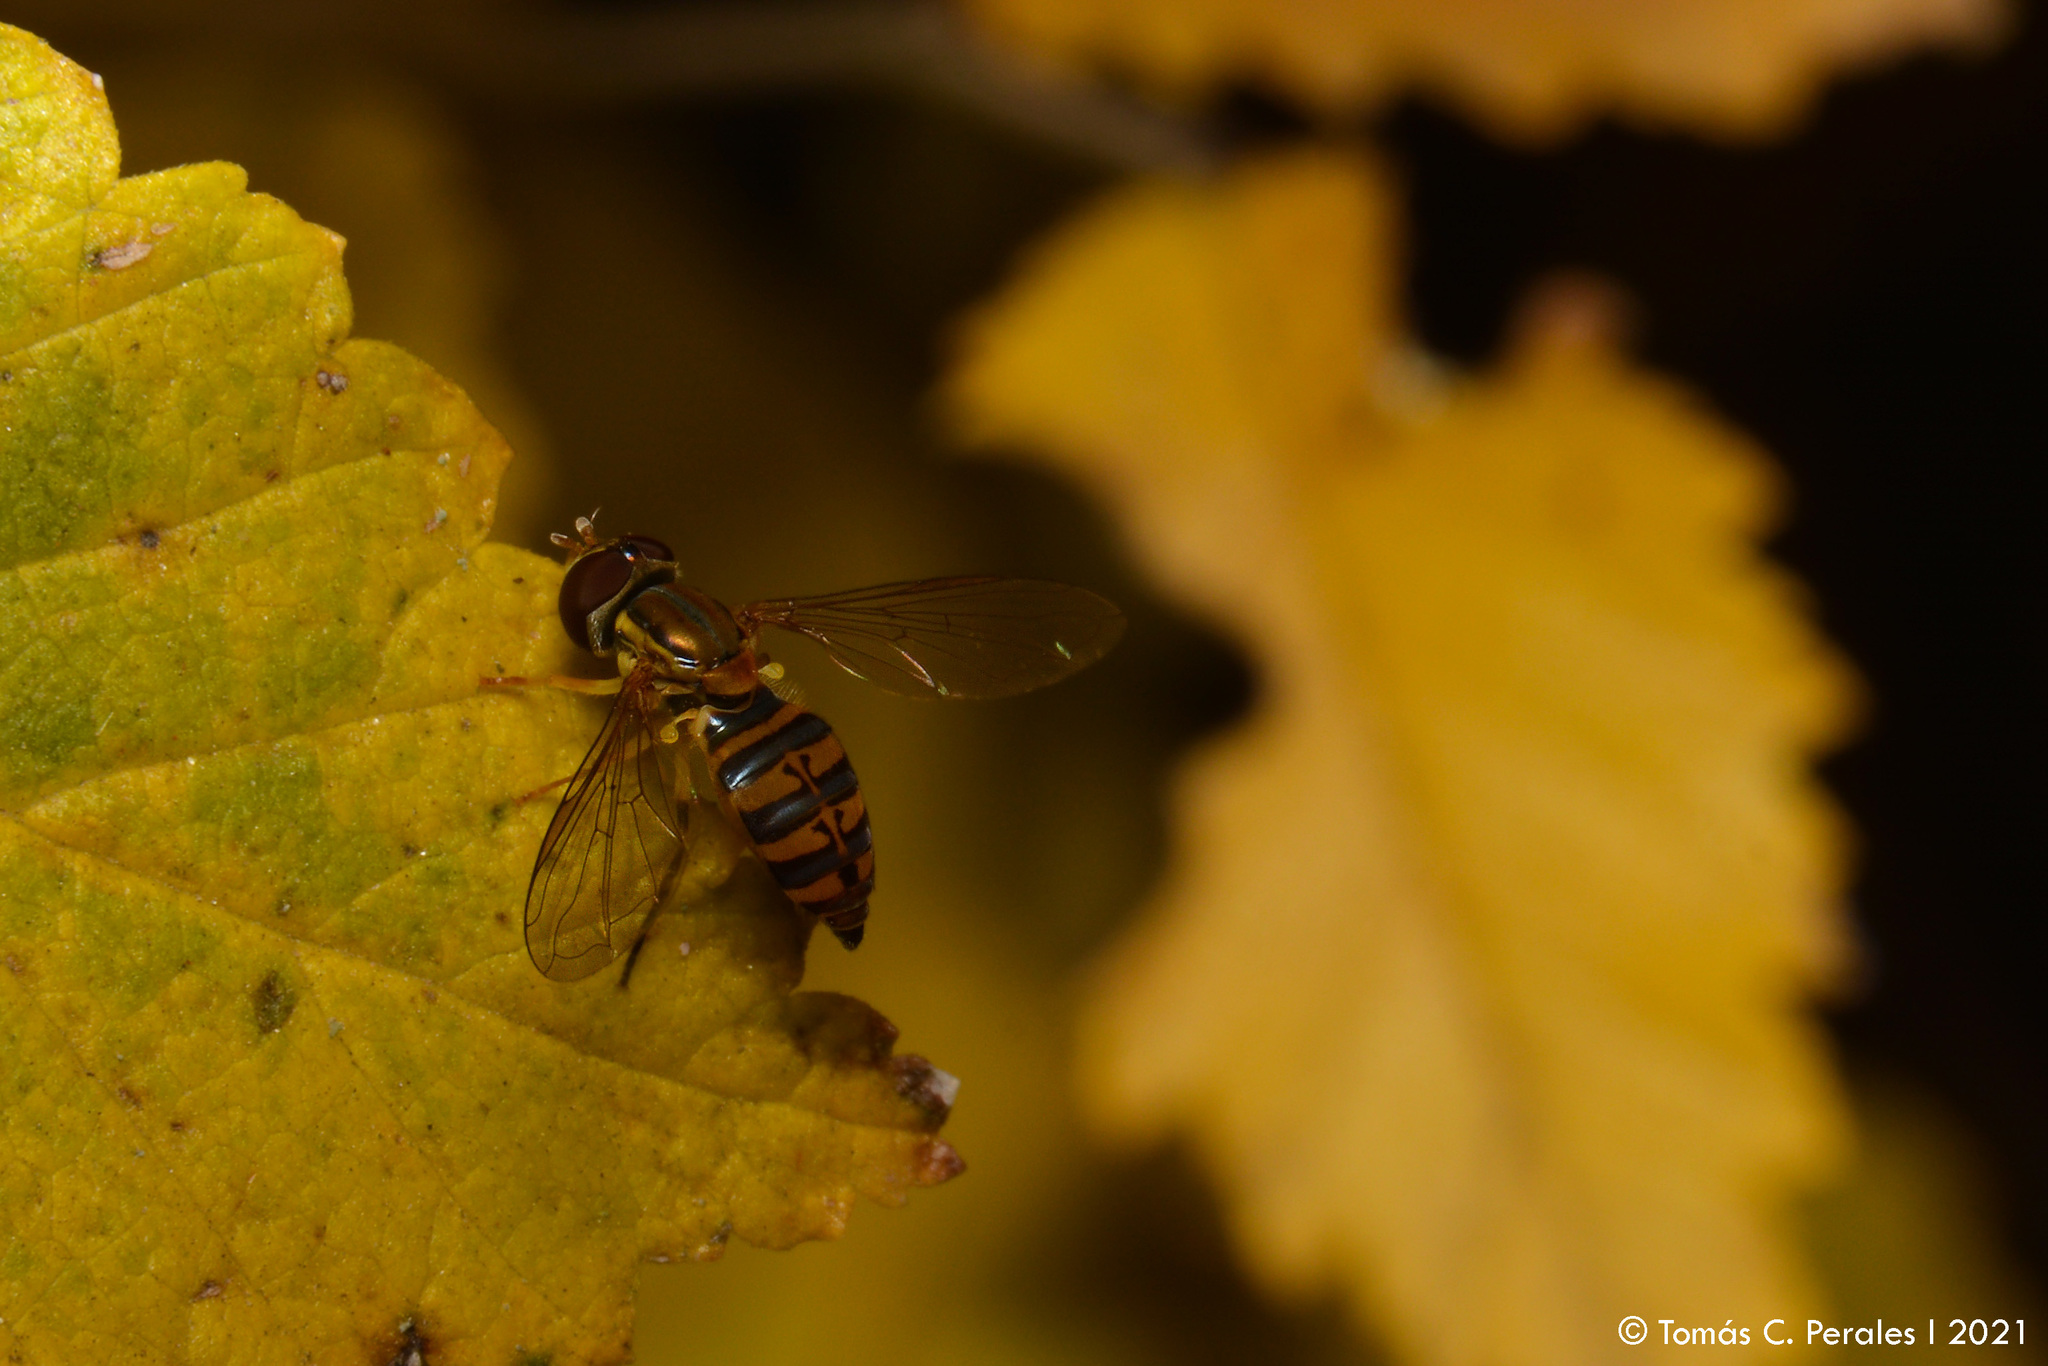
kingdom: Animalia
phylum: Arthropoda
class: Insecta
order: Diptera
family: Syrphidae
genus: Toxomerus
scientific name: Toxomerus
